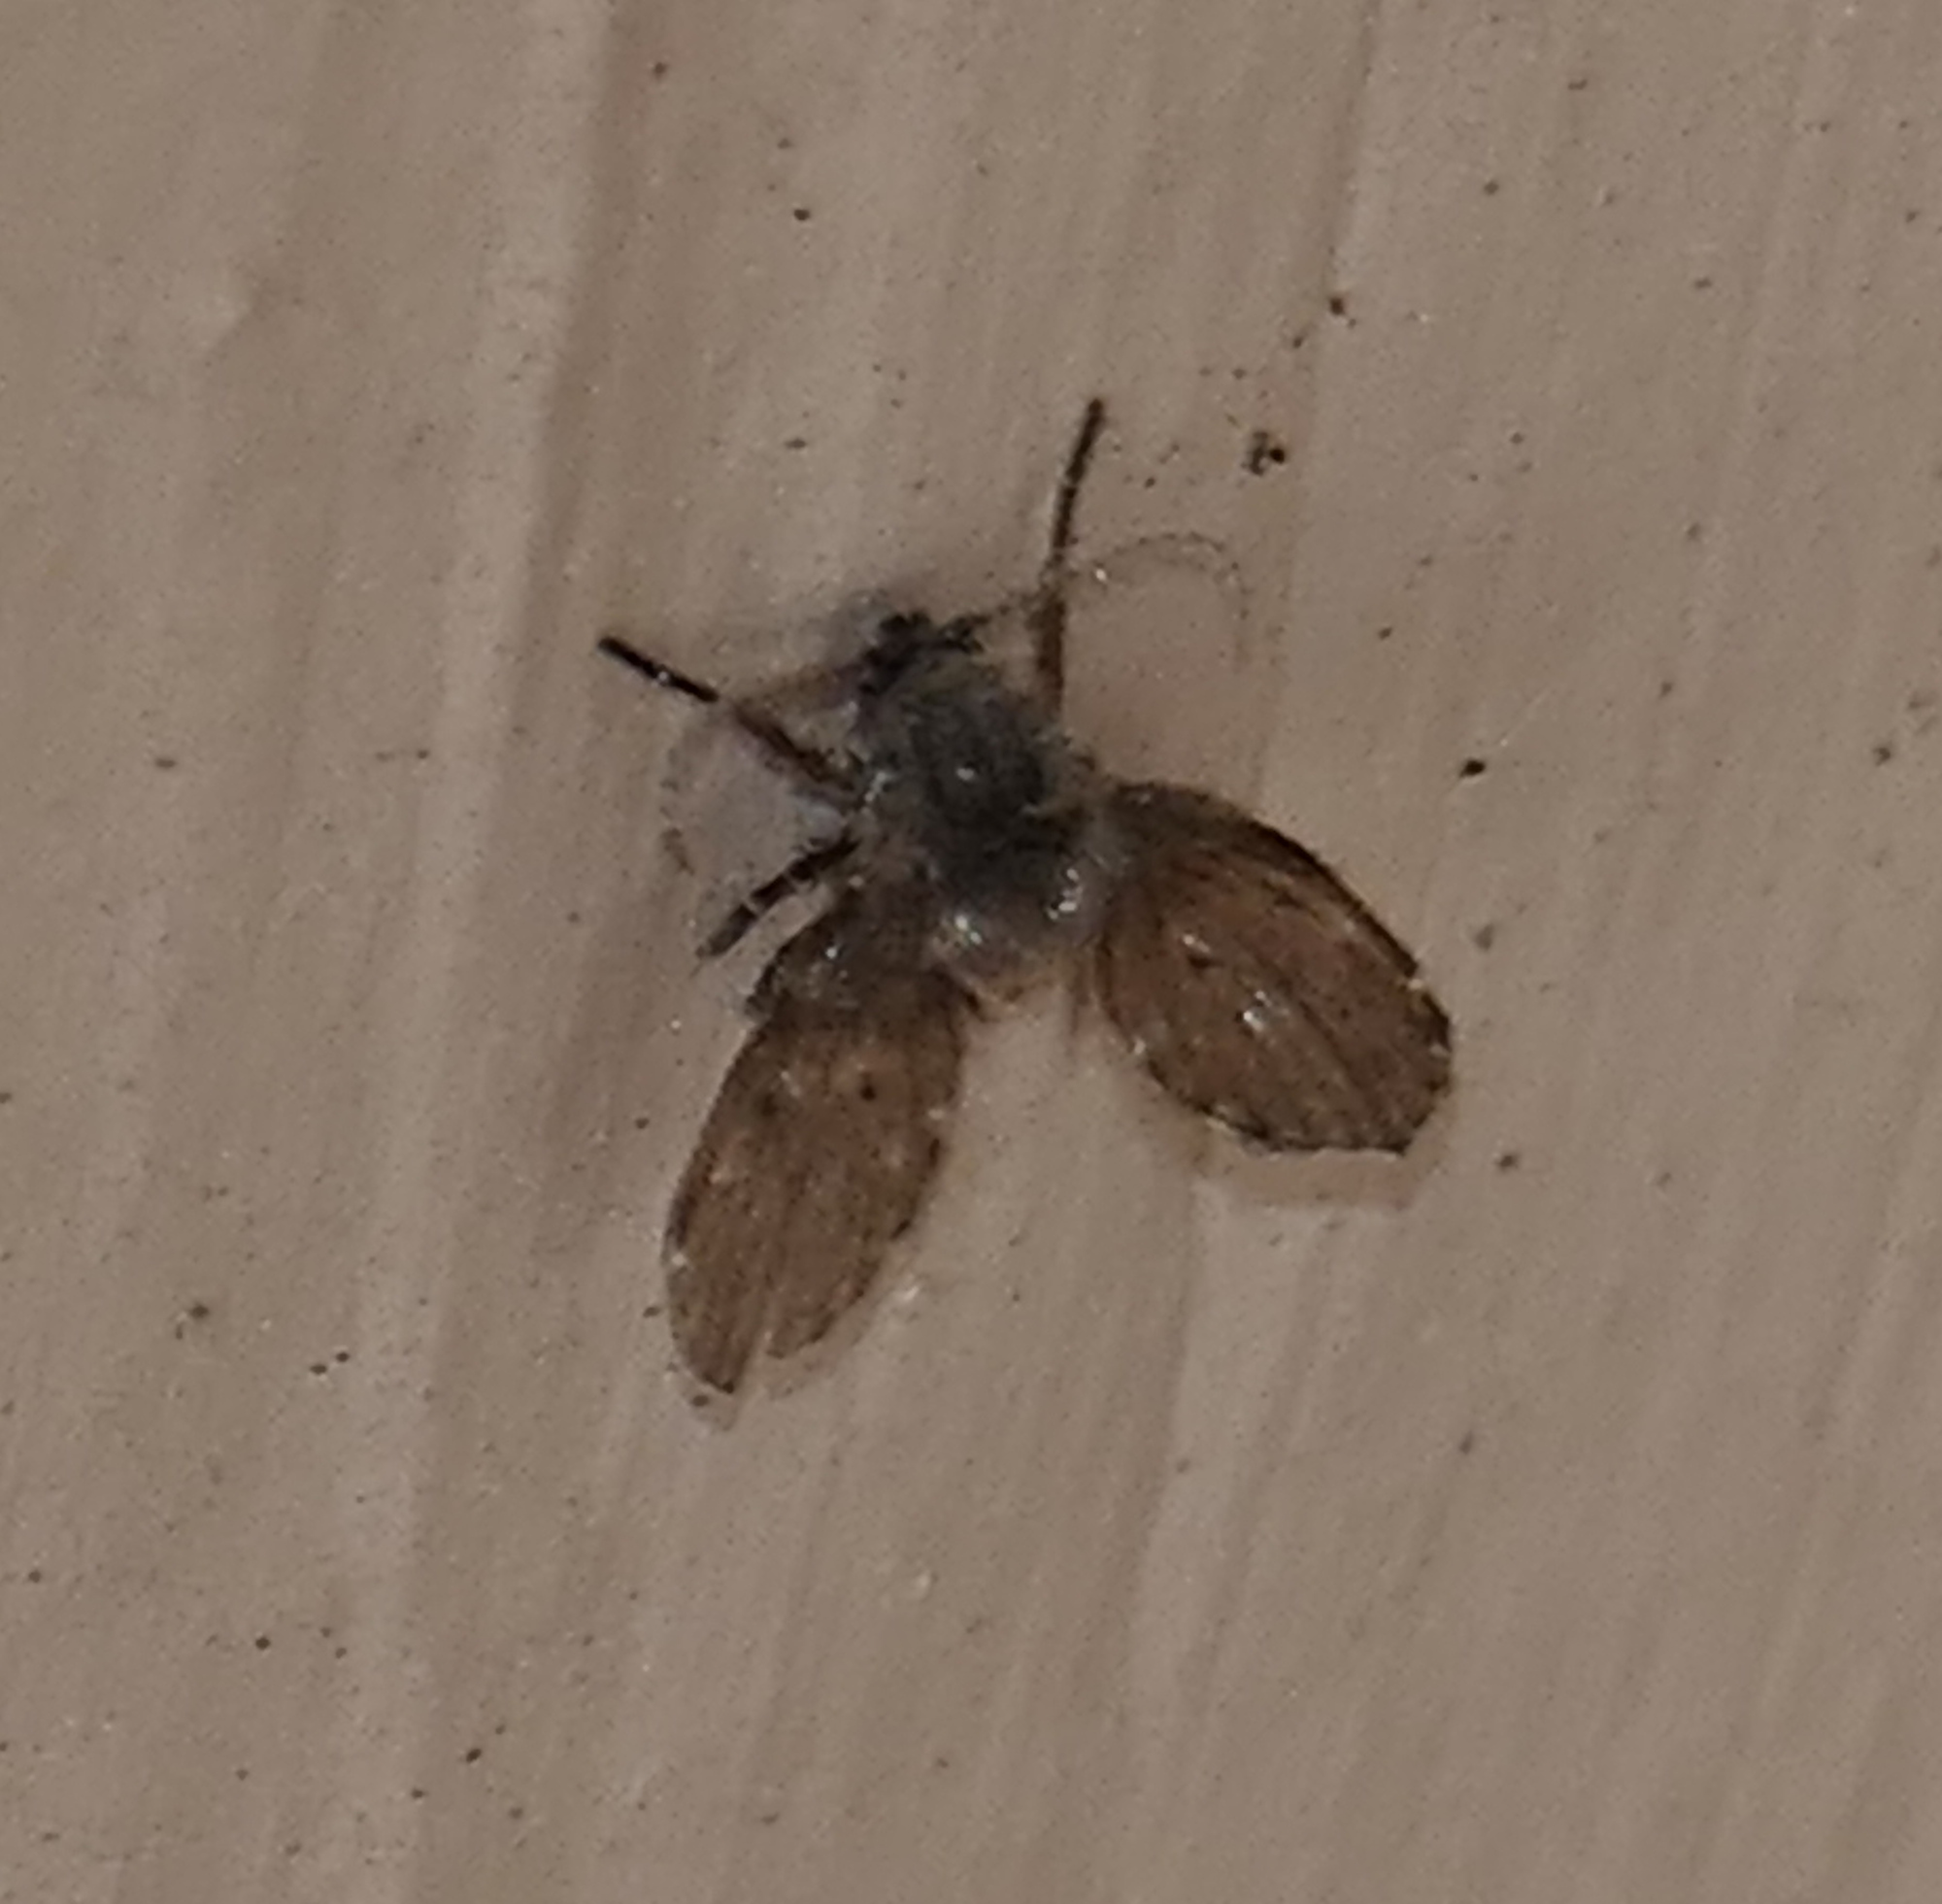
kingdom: Animalia
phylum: Arthropoda
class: Insecta
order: Diptera
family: Psychodidae
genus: Clogmia
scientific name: Clogmia albipunctatus
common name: White-spotted moth fly
